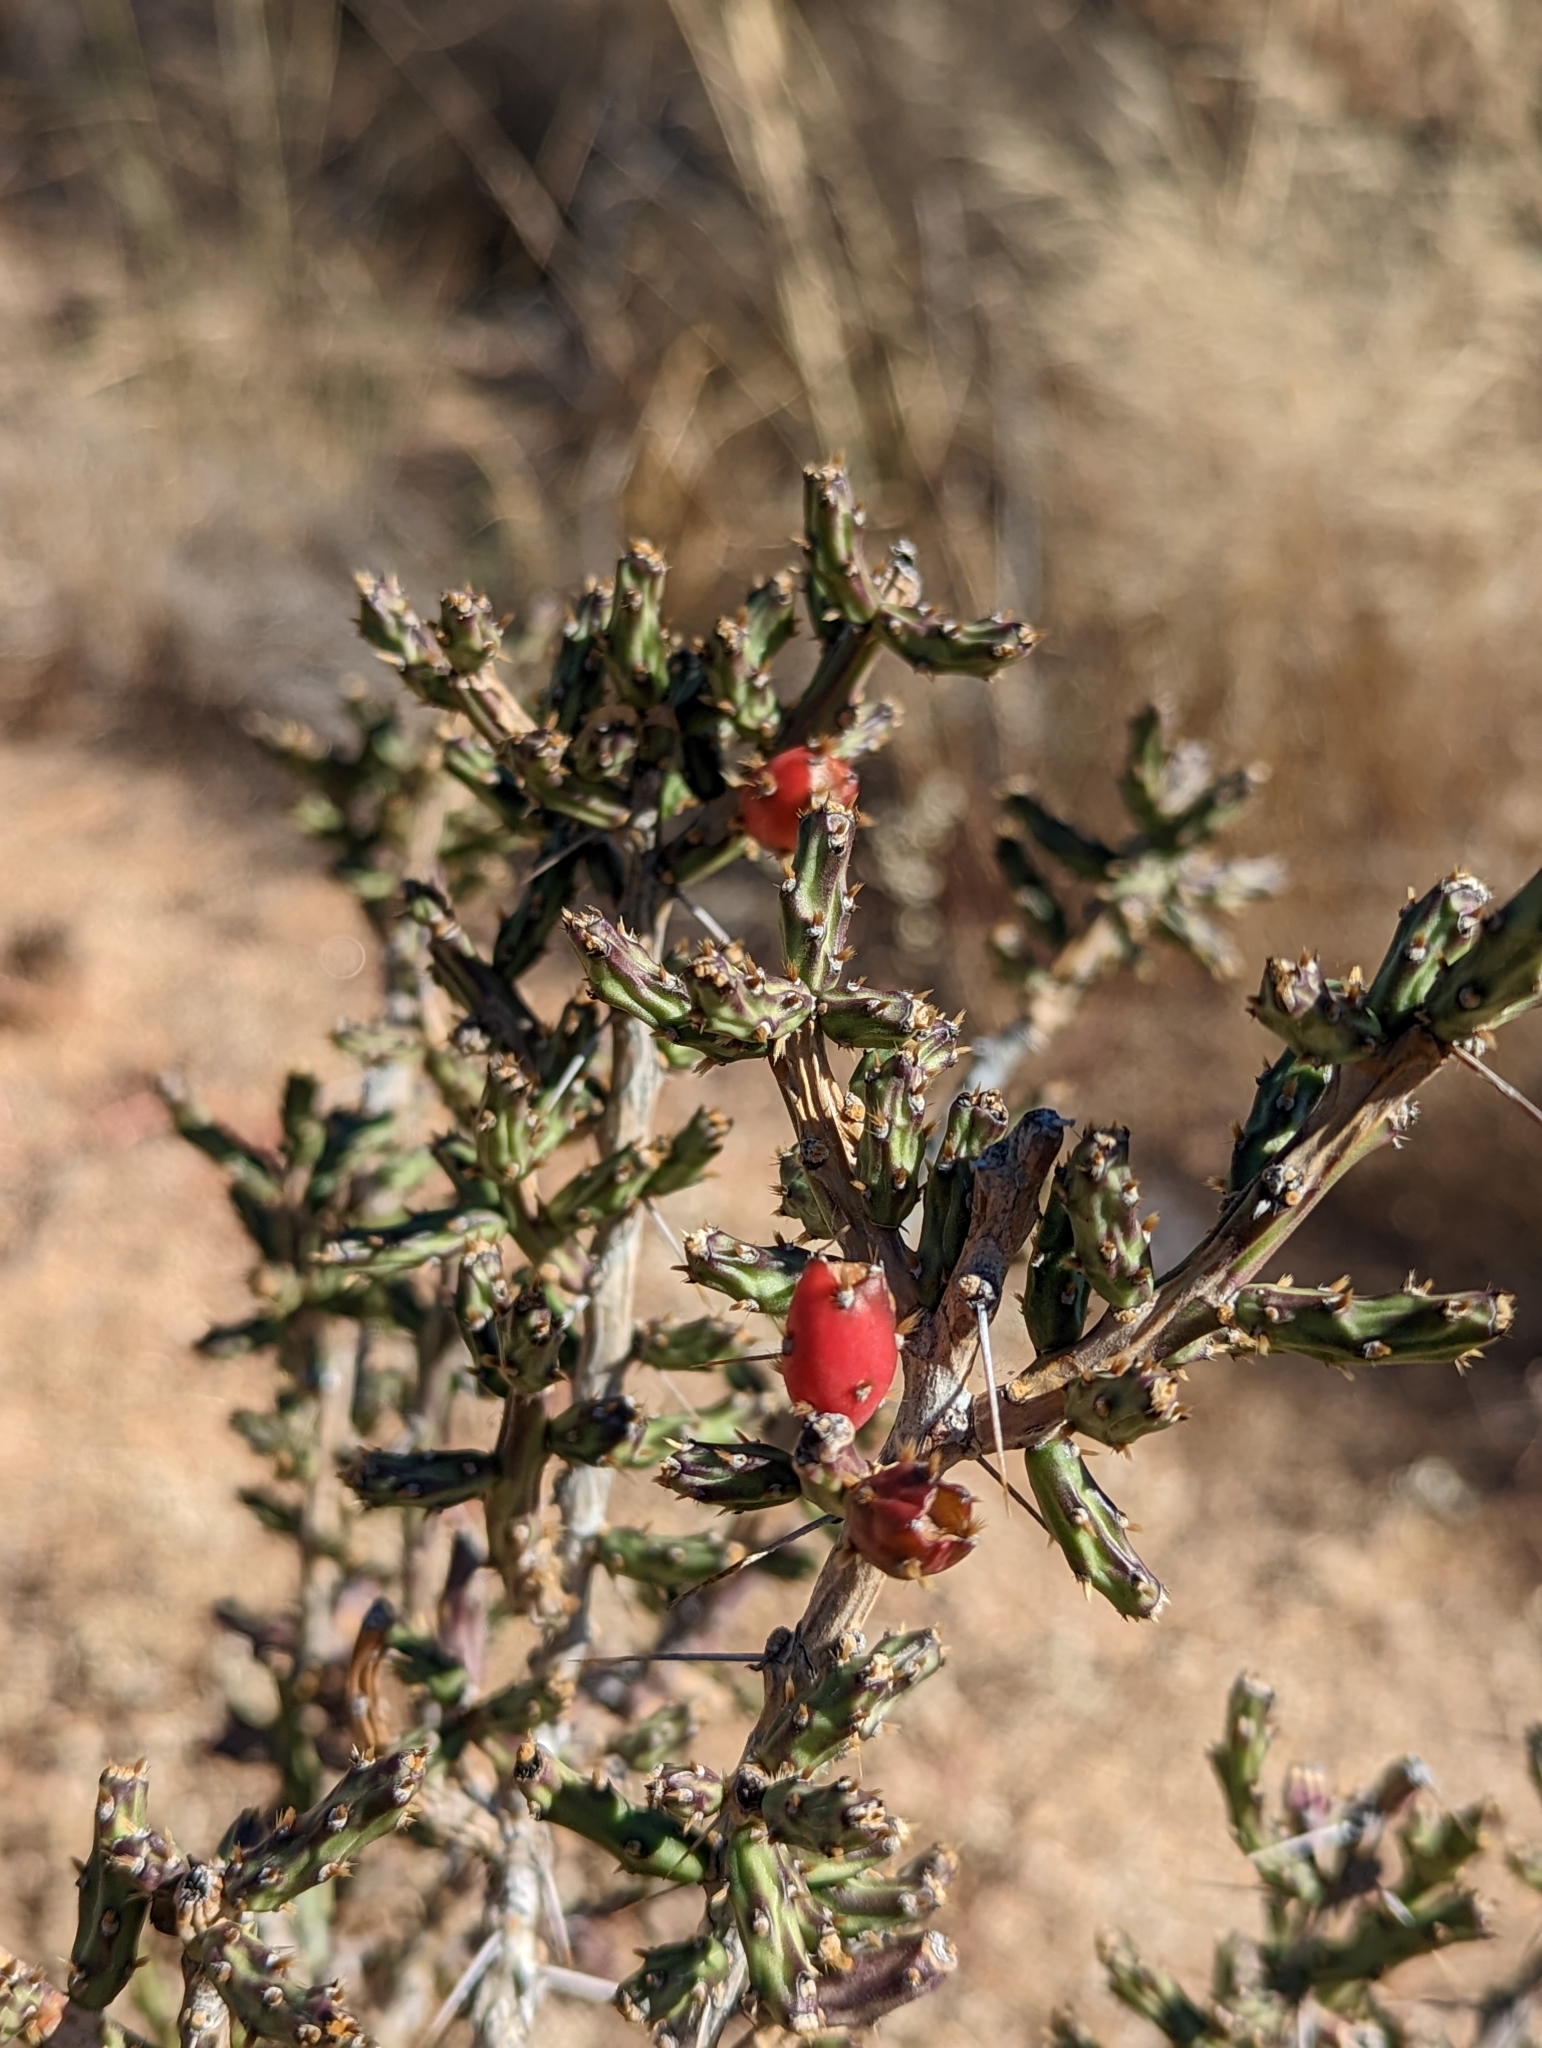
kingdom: Plantae
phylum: Tracheophyta
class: Magnoliopsida
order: Caryophyllales
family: Cactaceae
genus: Cylindropuntia
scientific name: Cylindropuntia leptocaulis
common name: Christmas cactus
